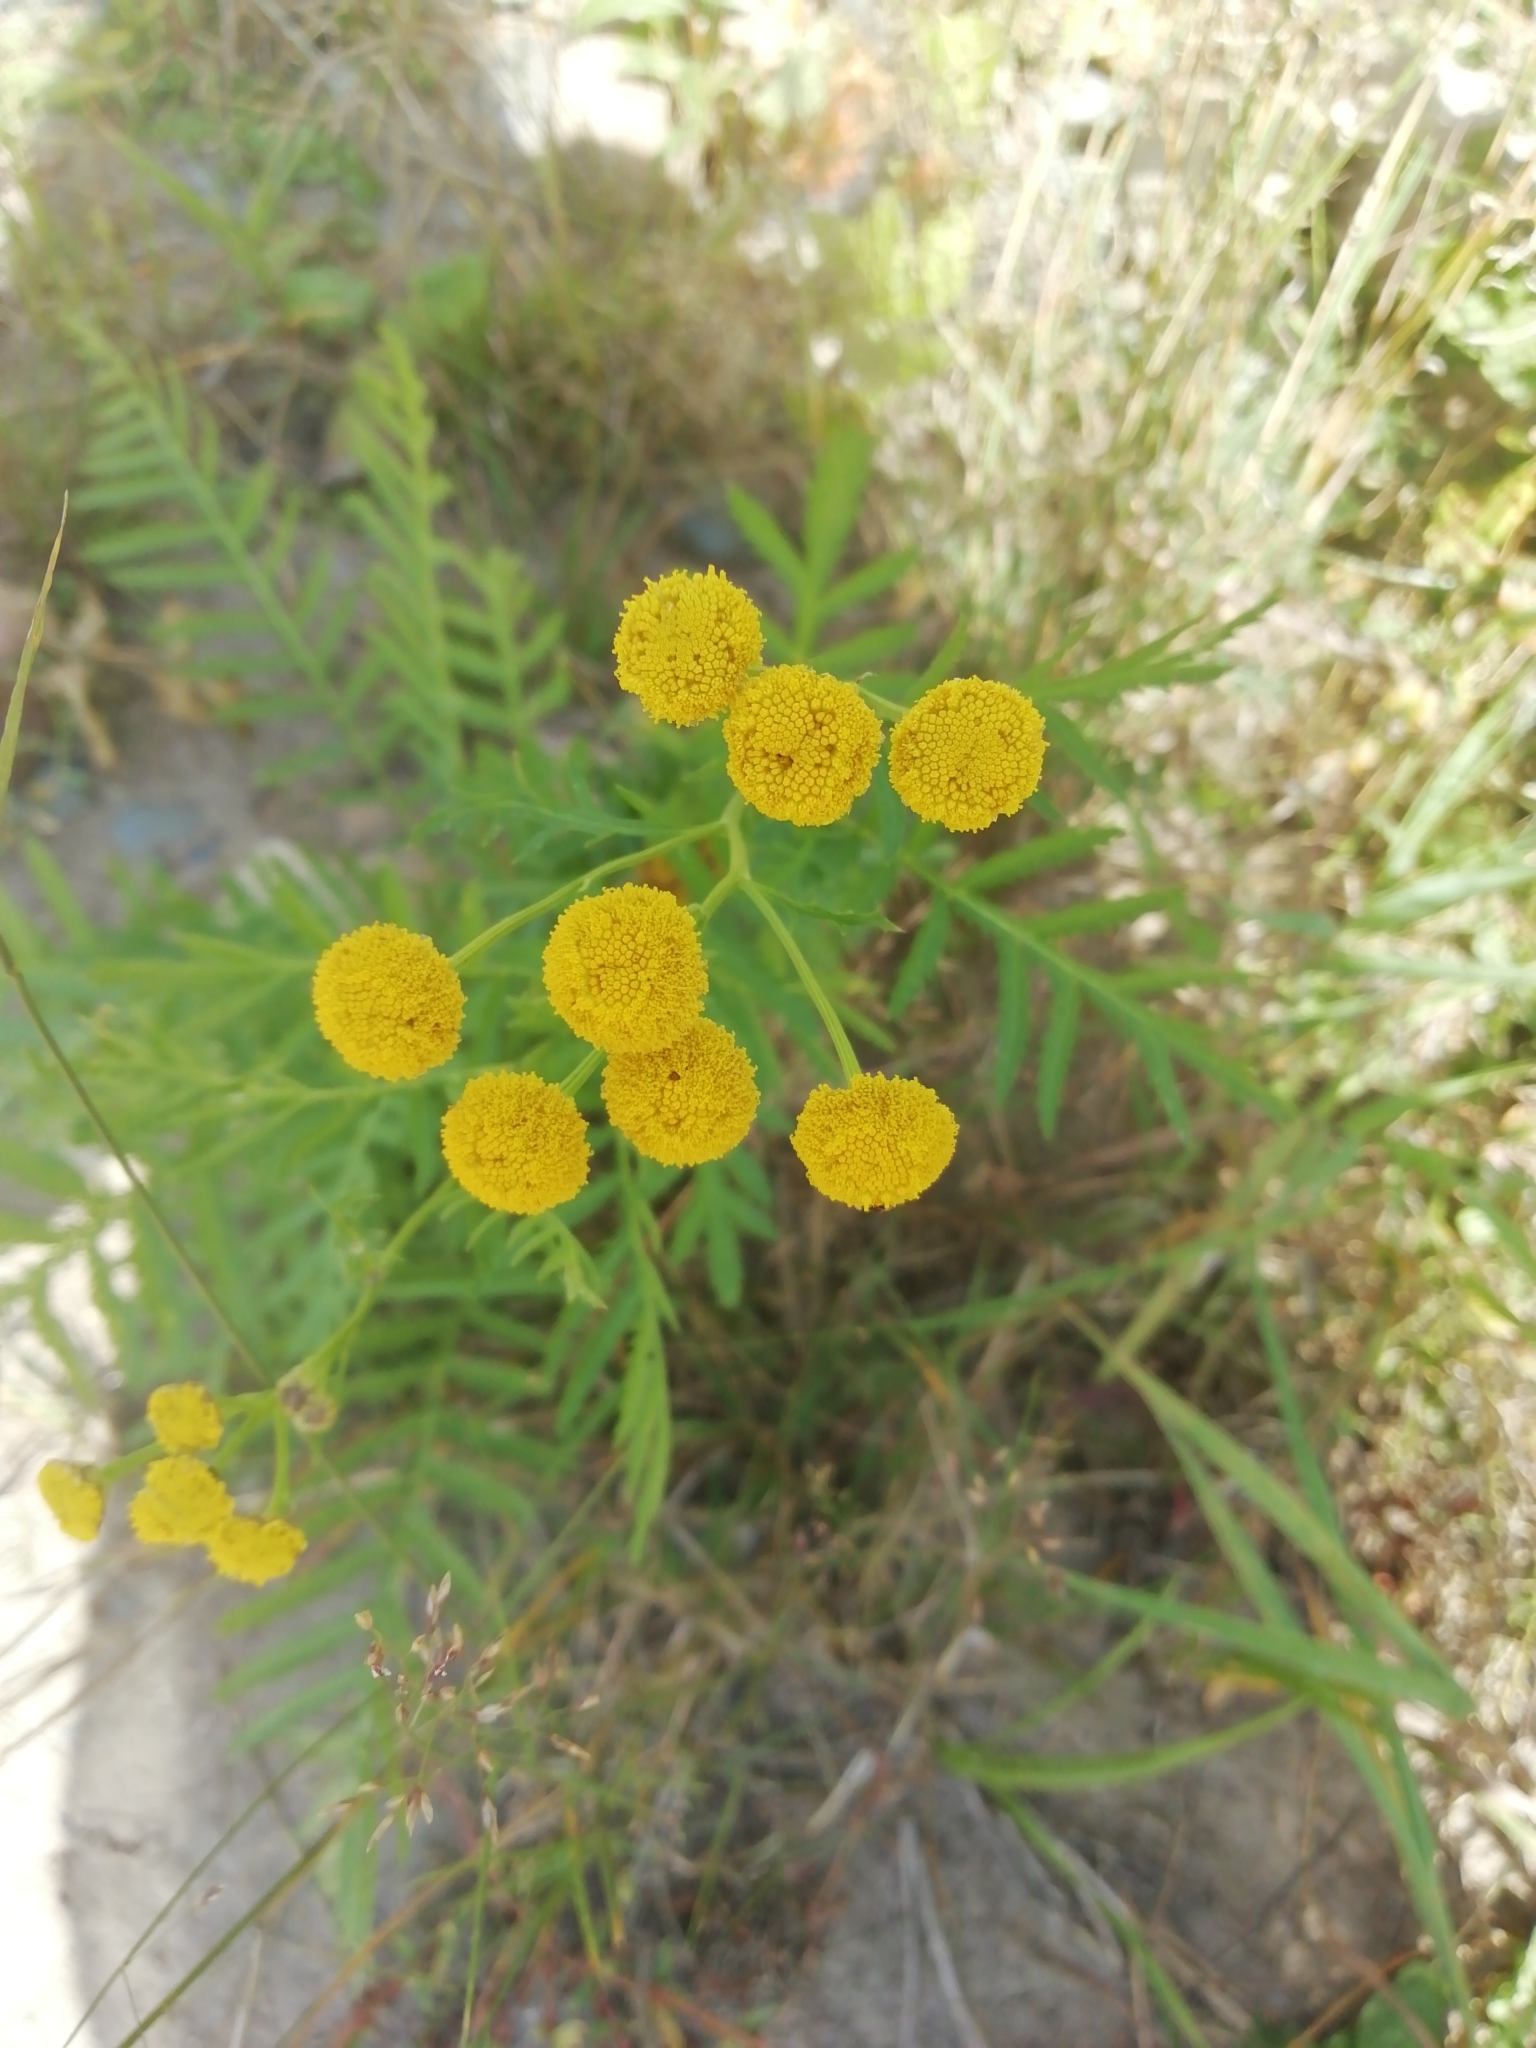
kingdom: Plantae
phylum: Tracheophyta
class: Magnoliopsida
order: Asterales
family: Asteraceae
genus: Tanacetum
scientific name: Tanacetum vulgare
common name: Common tansy
